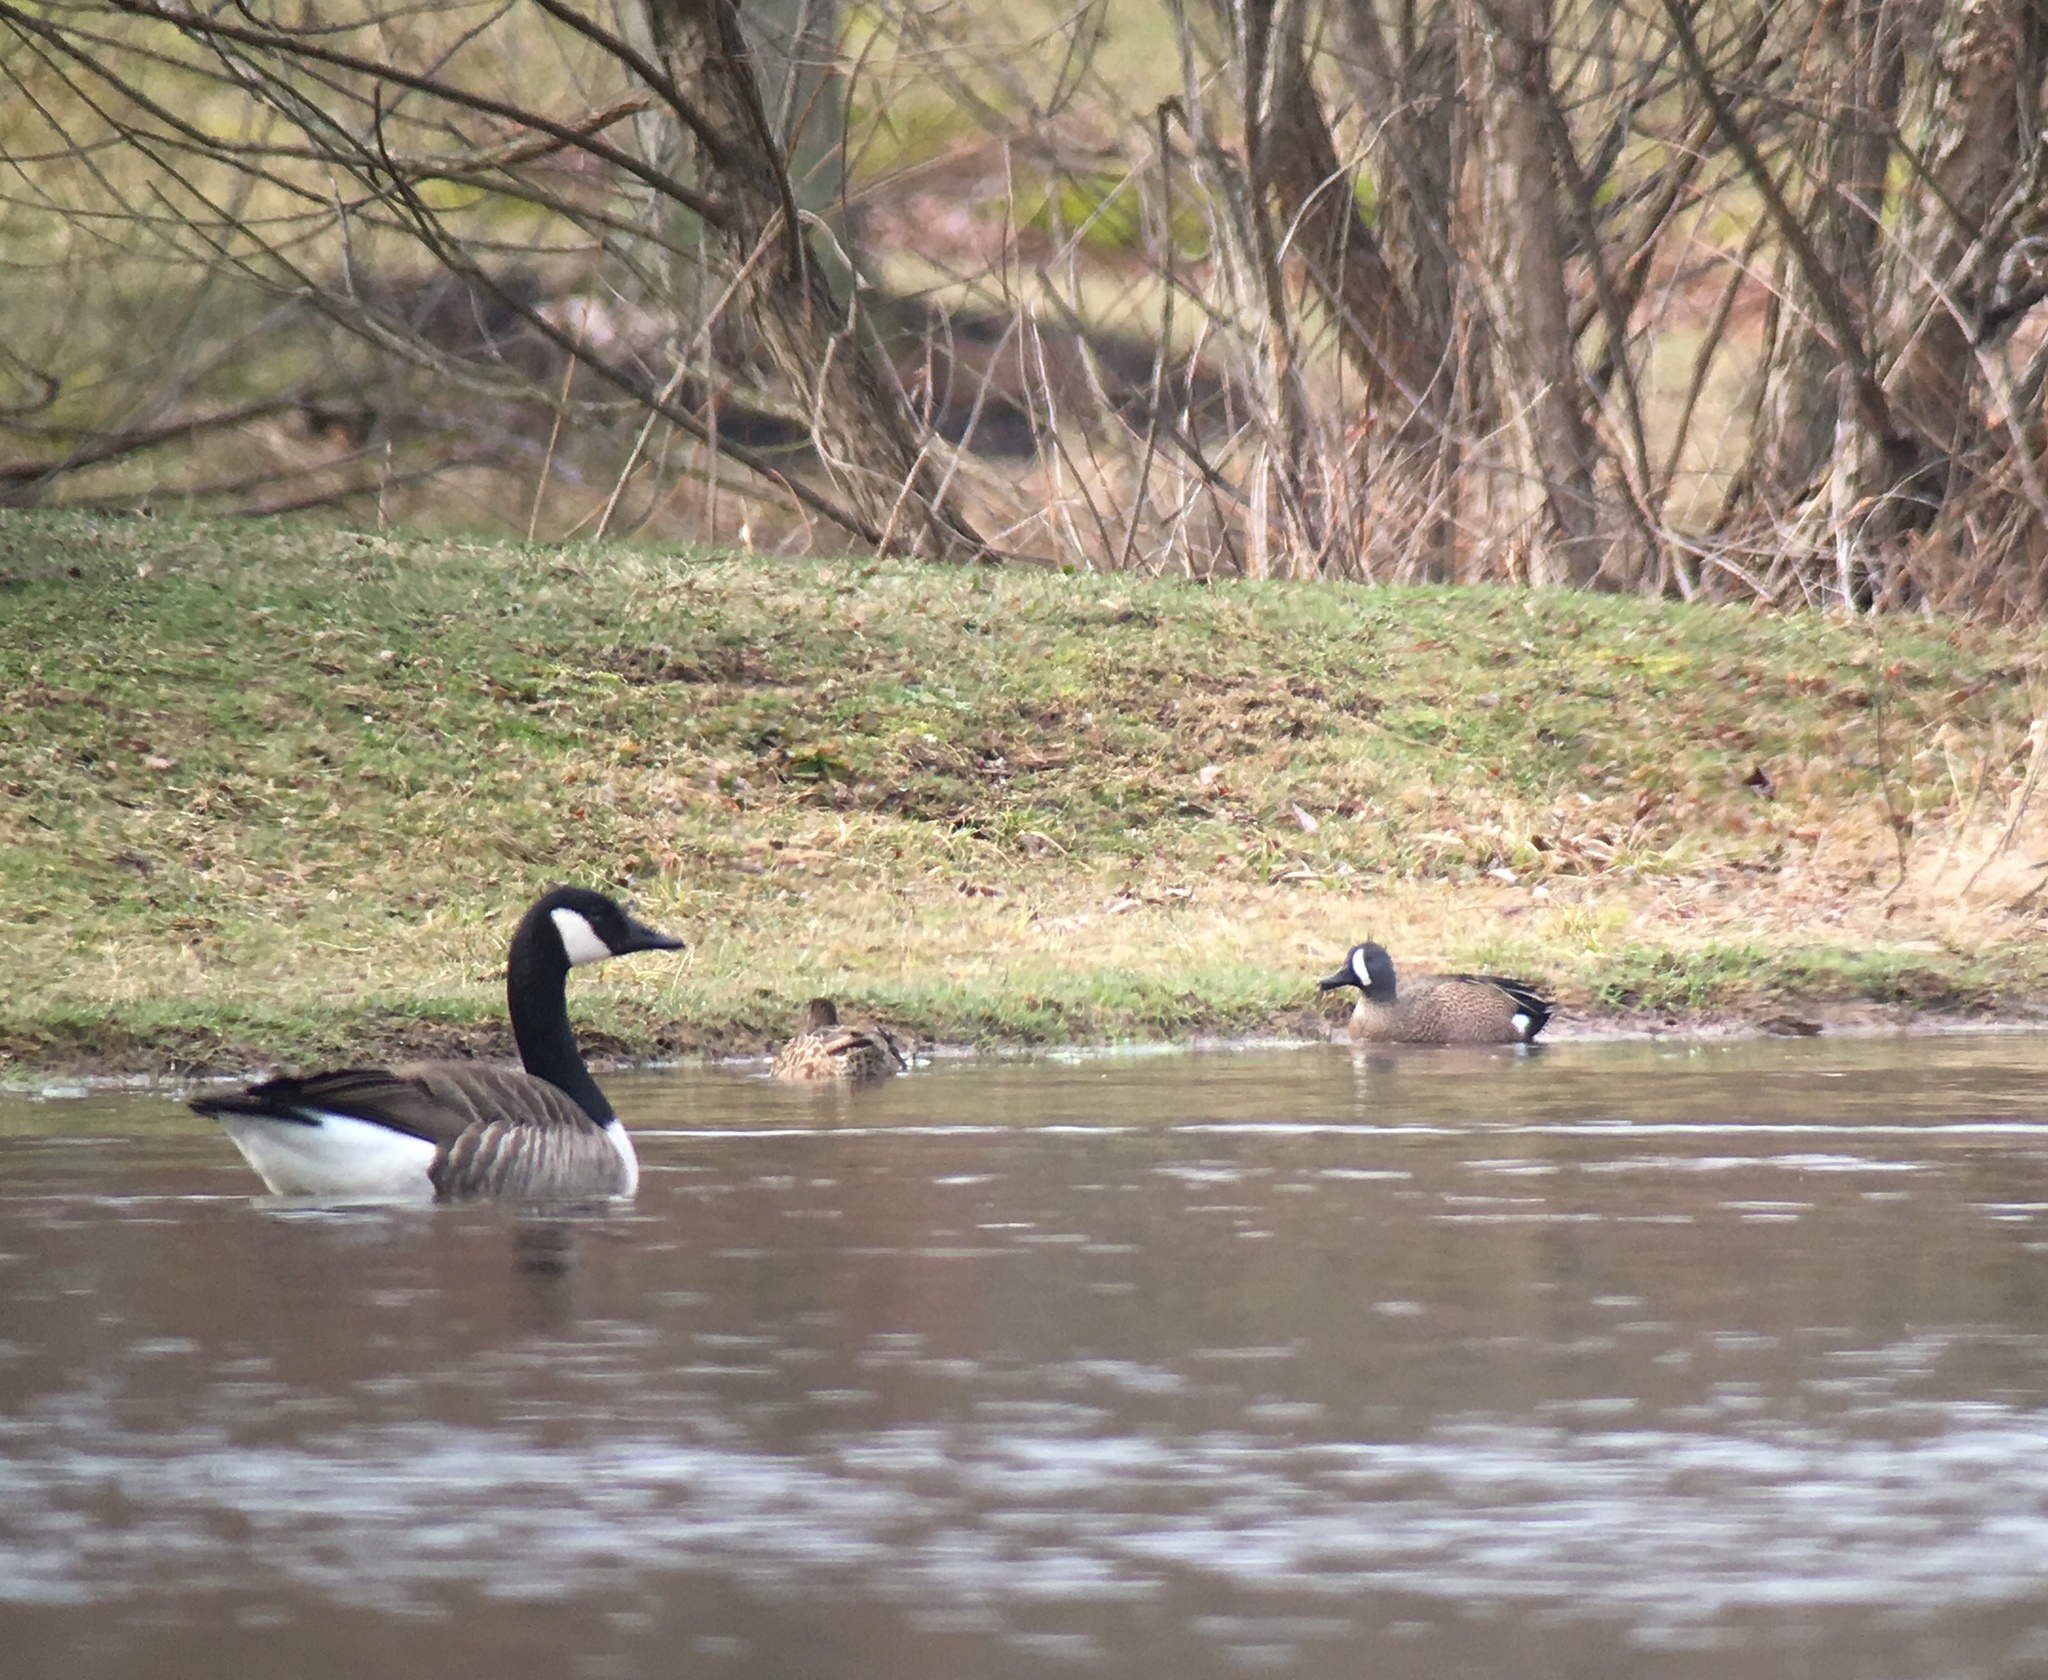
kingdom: Animalia
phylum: Chordata
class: Aves
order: Anseriformes
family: Anatidae
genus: Spatula
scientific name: Spatula discors
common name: Blue-winged teal
